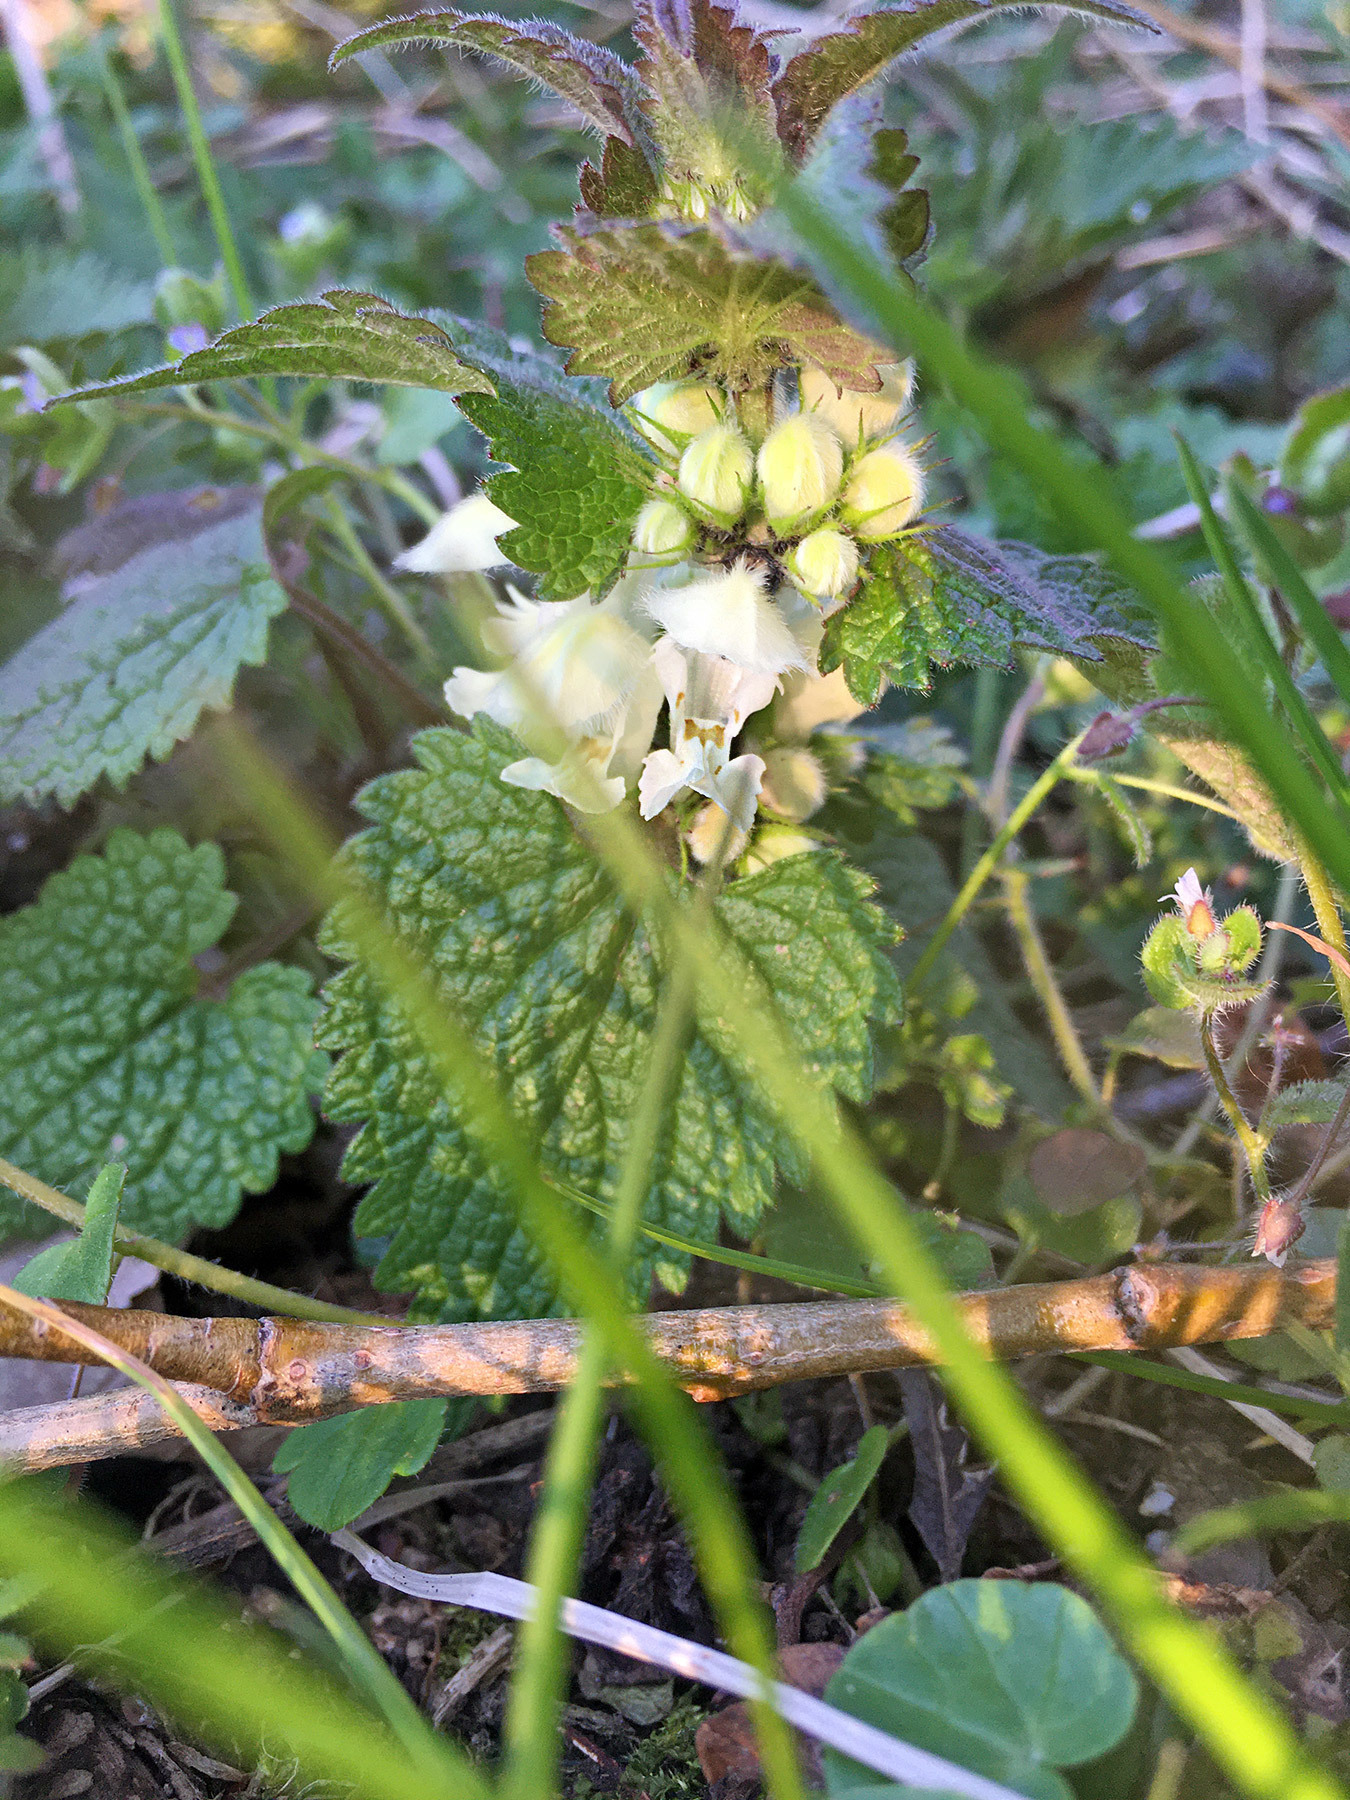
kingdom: Plantae
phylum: Tracheophyta
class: Magnoliopsida
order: Lamiales
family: Lamiaceae
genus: Lamium
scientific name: Lamium album
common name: White dead-nettle
